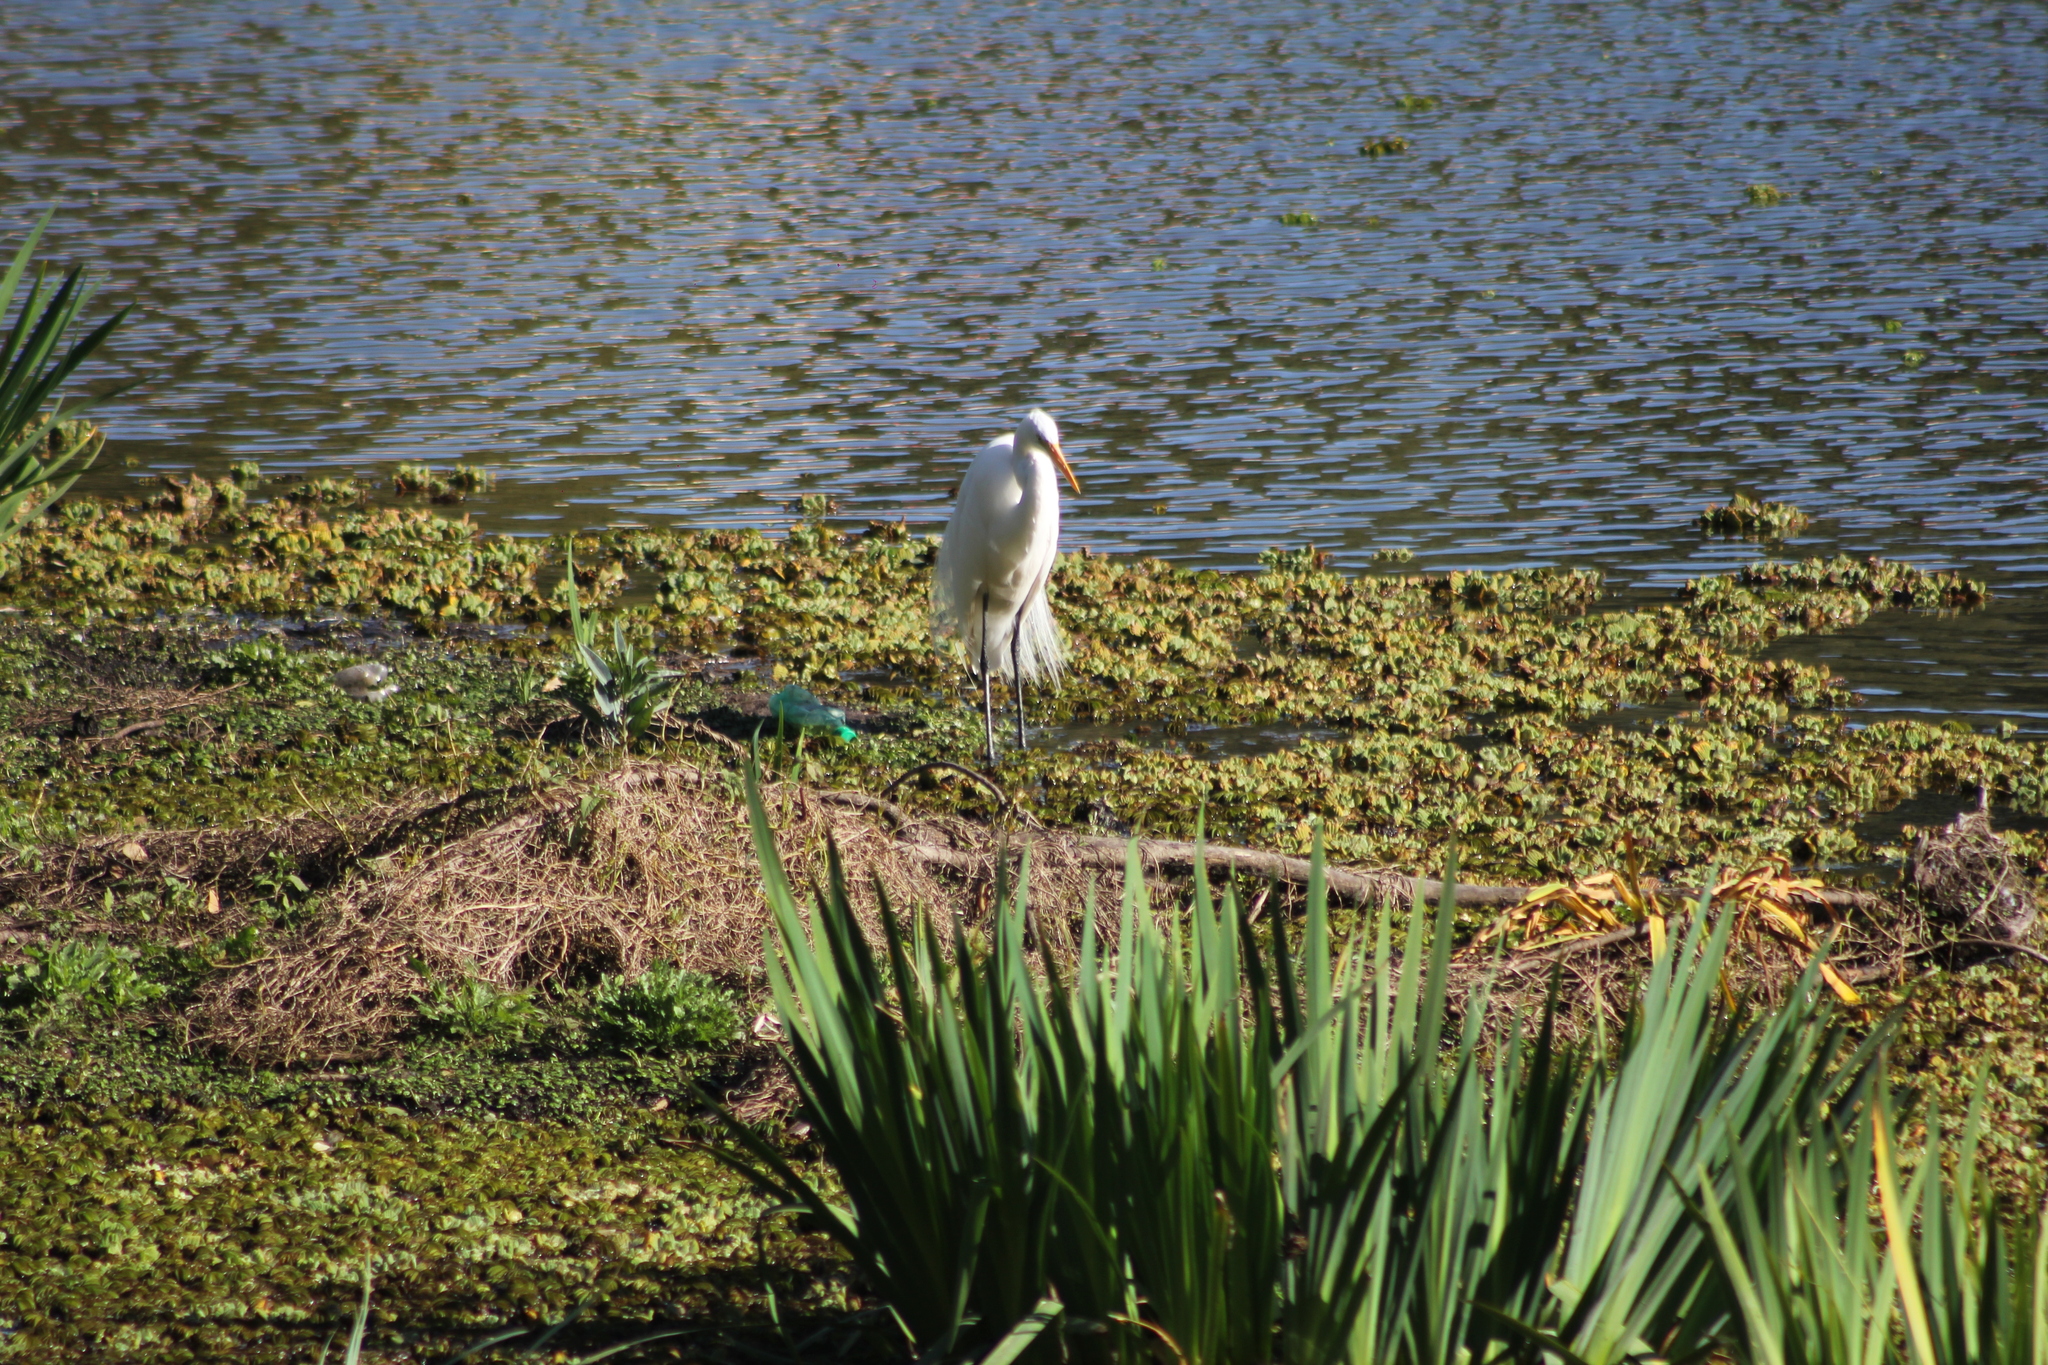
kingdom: Animalia
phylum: Chordata
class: Aves
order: Pelecaniformes
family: Ardeidae
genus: Ardea
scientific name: Ardea alba
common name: Great egret
